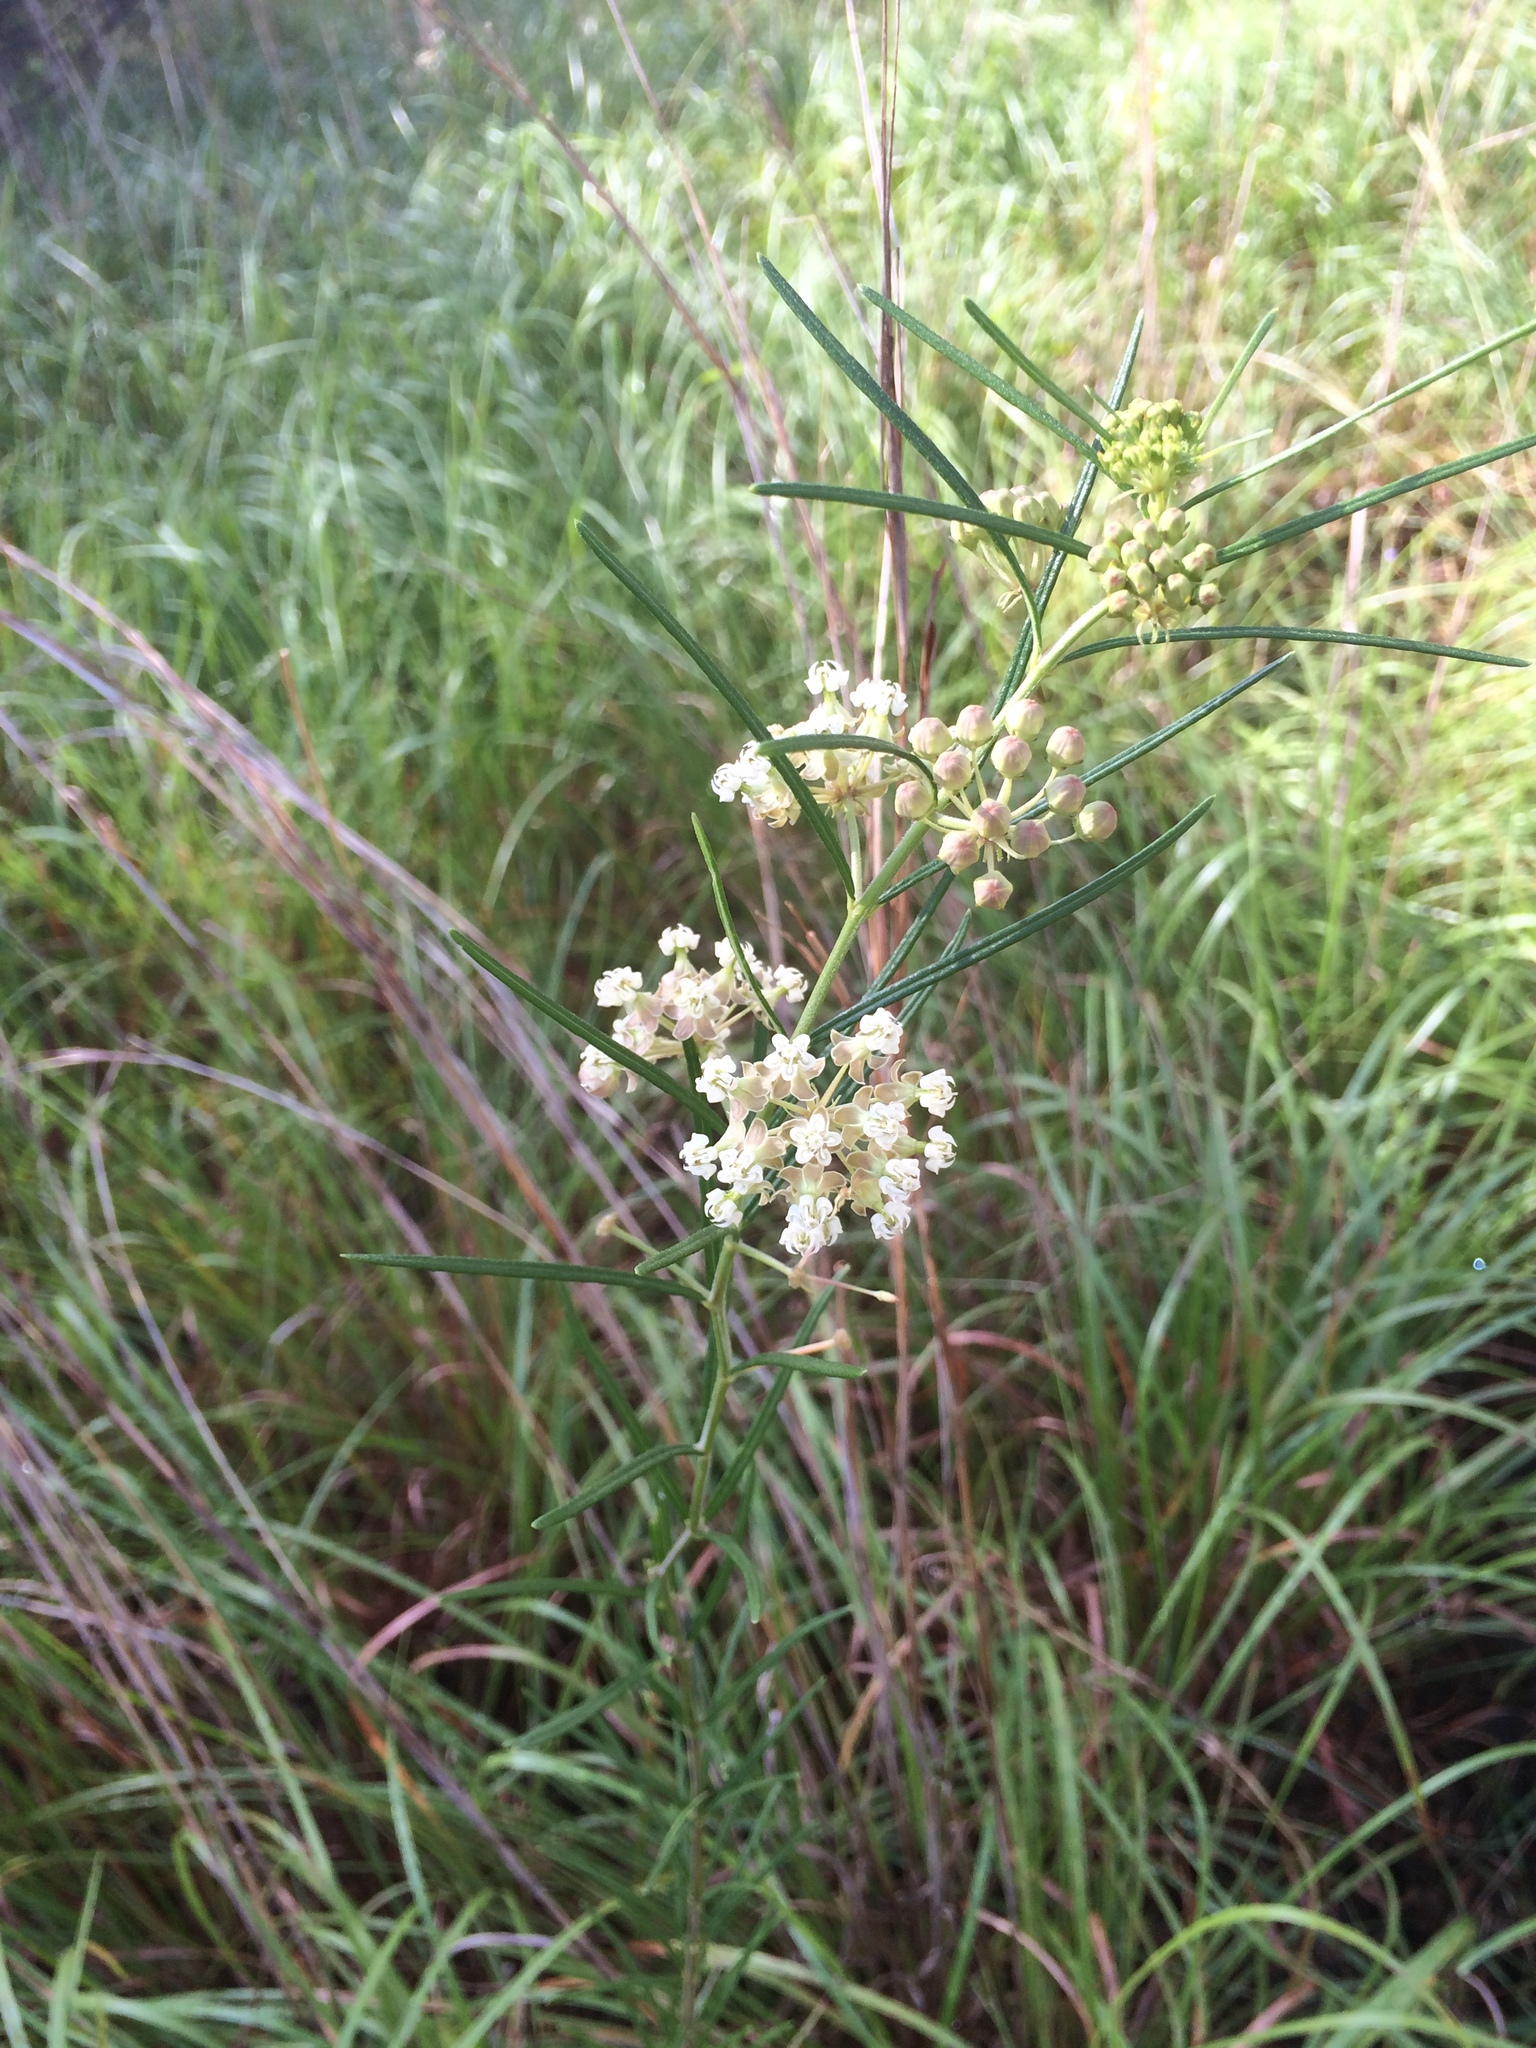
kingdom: Plantae
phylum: Tracheophyta
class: Magnoliopsida
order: Gentianales
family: Apocynaceae
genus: Asclepias
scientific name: Asclepias verticillata
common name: Eastern whorled milkweed
